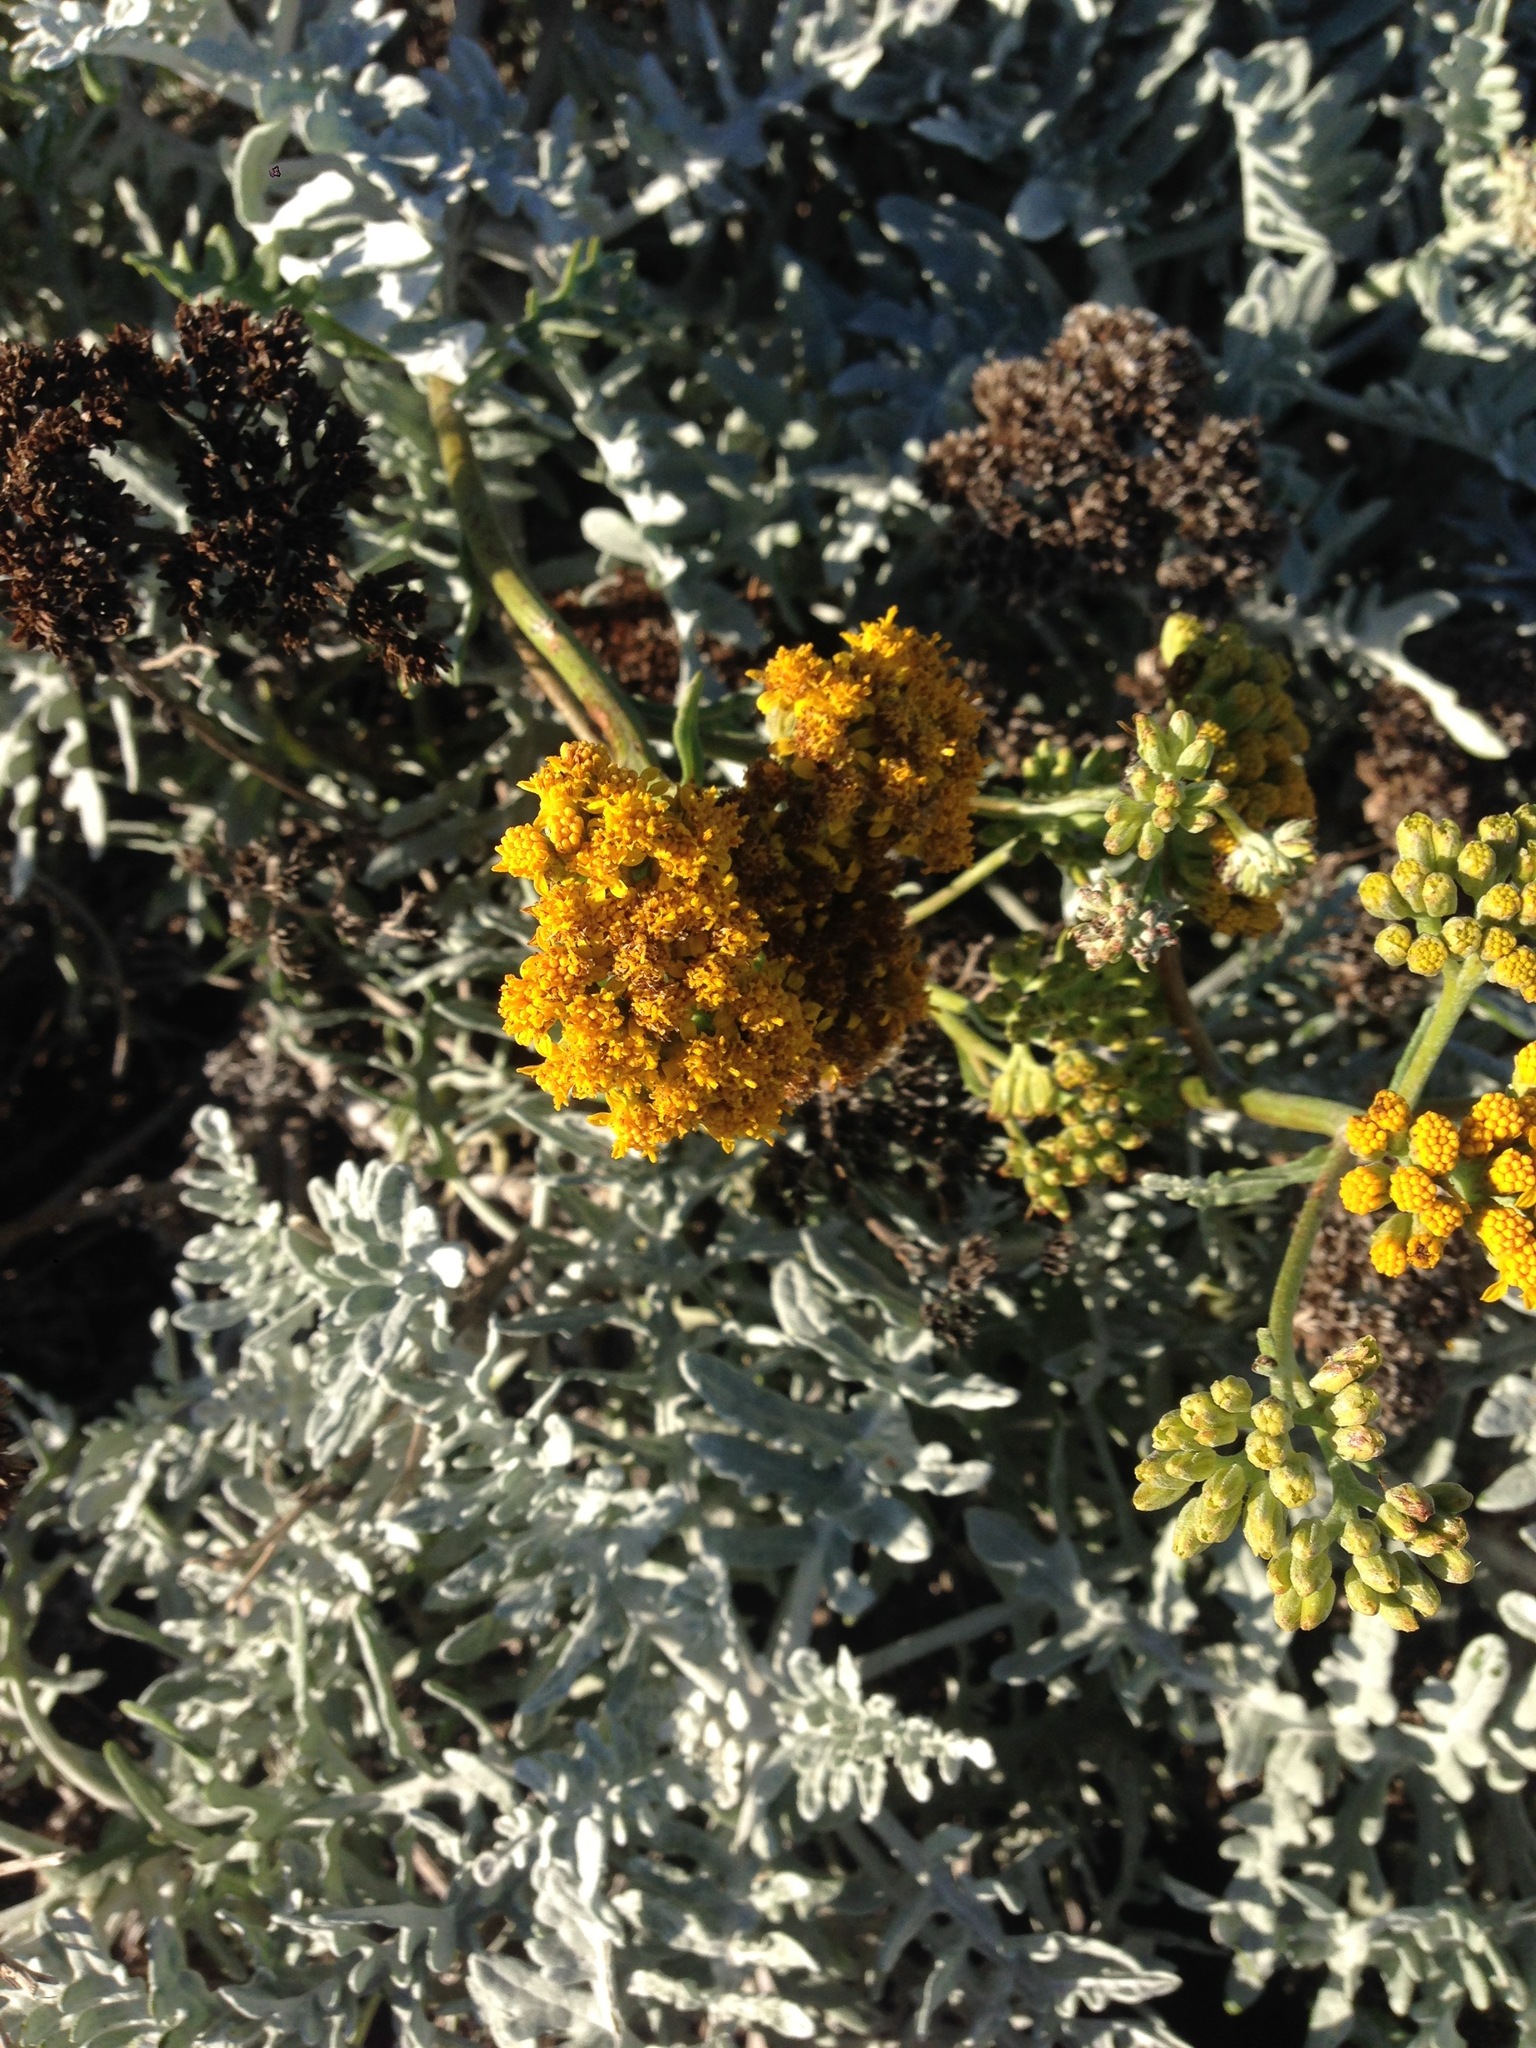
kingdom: Plantae
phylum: Tracheophyta
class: Magnoliopsida
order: Asterales
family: Asteraceae
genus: Constancea
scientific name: Constancea nevinii
